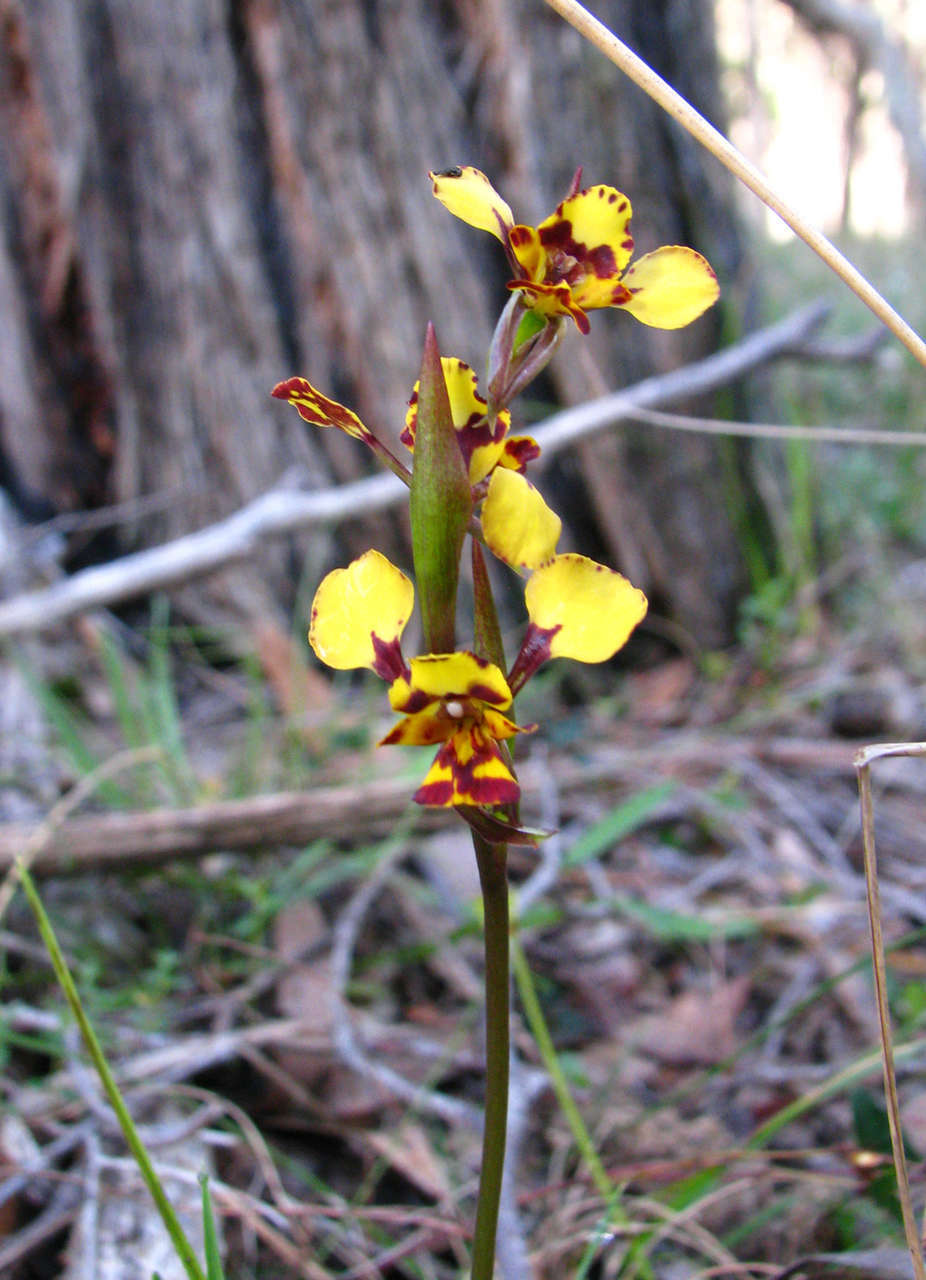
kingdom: Plantae
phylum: Tracheophyta
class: Liliopsida
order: Asparagales
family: Orchidaceae
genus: Diuris
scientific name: Diuris pardina
